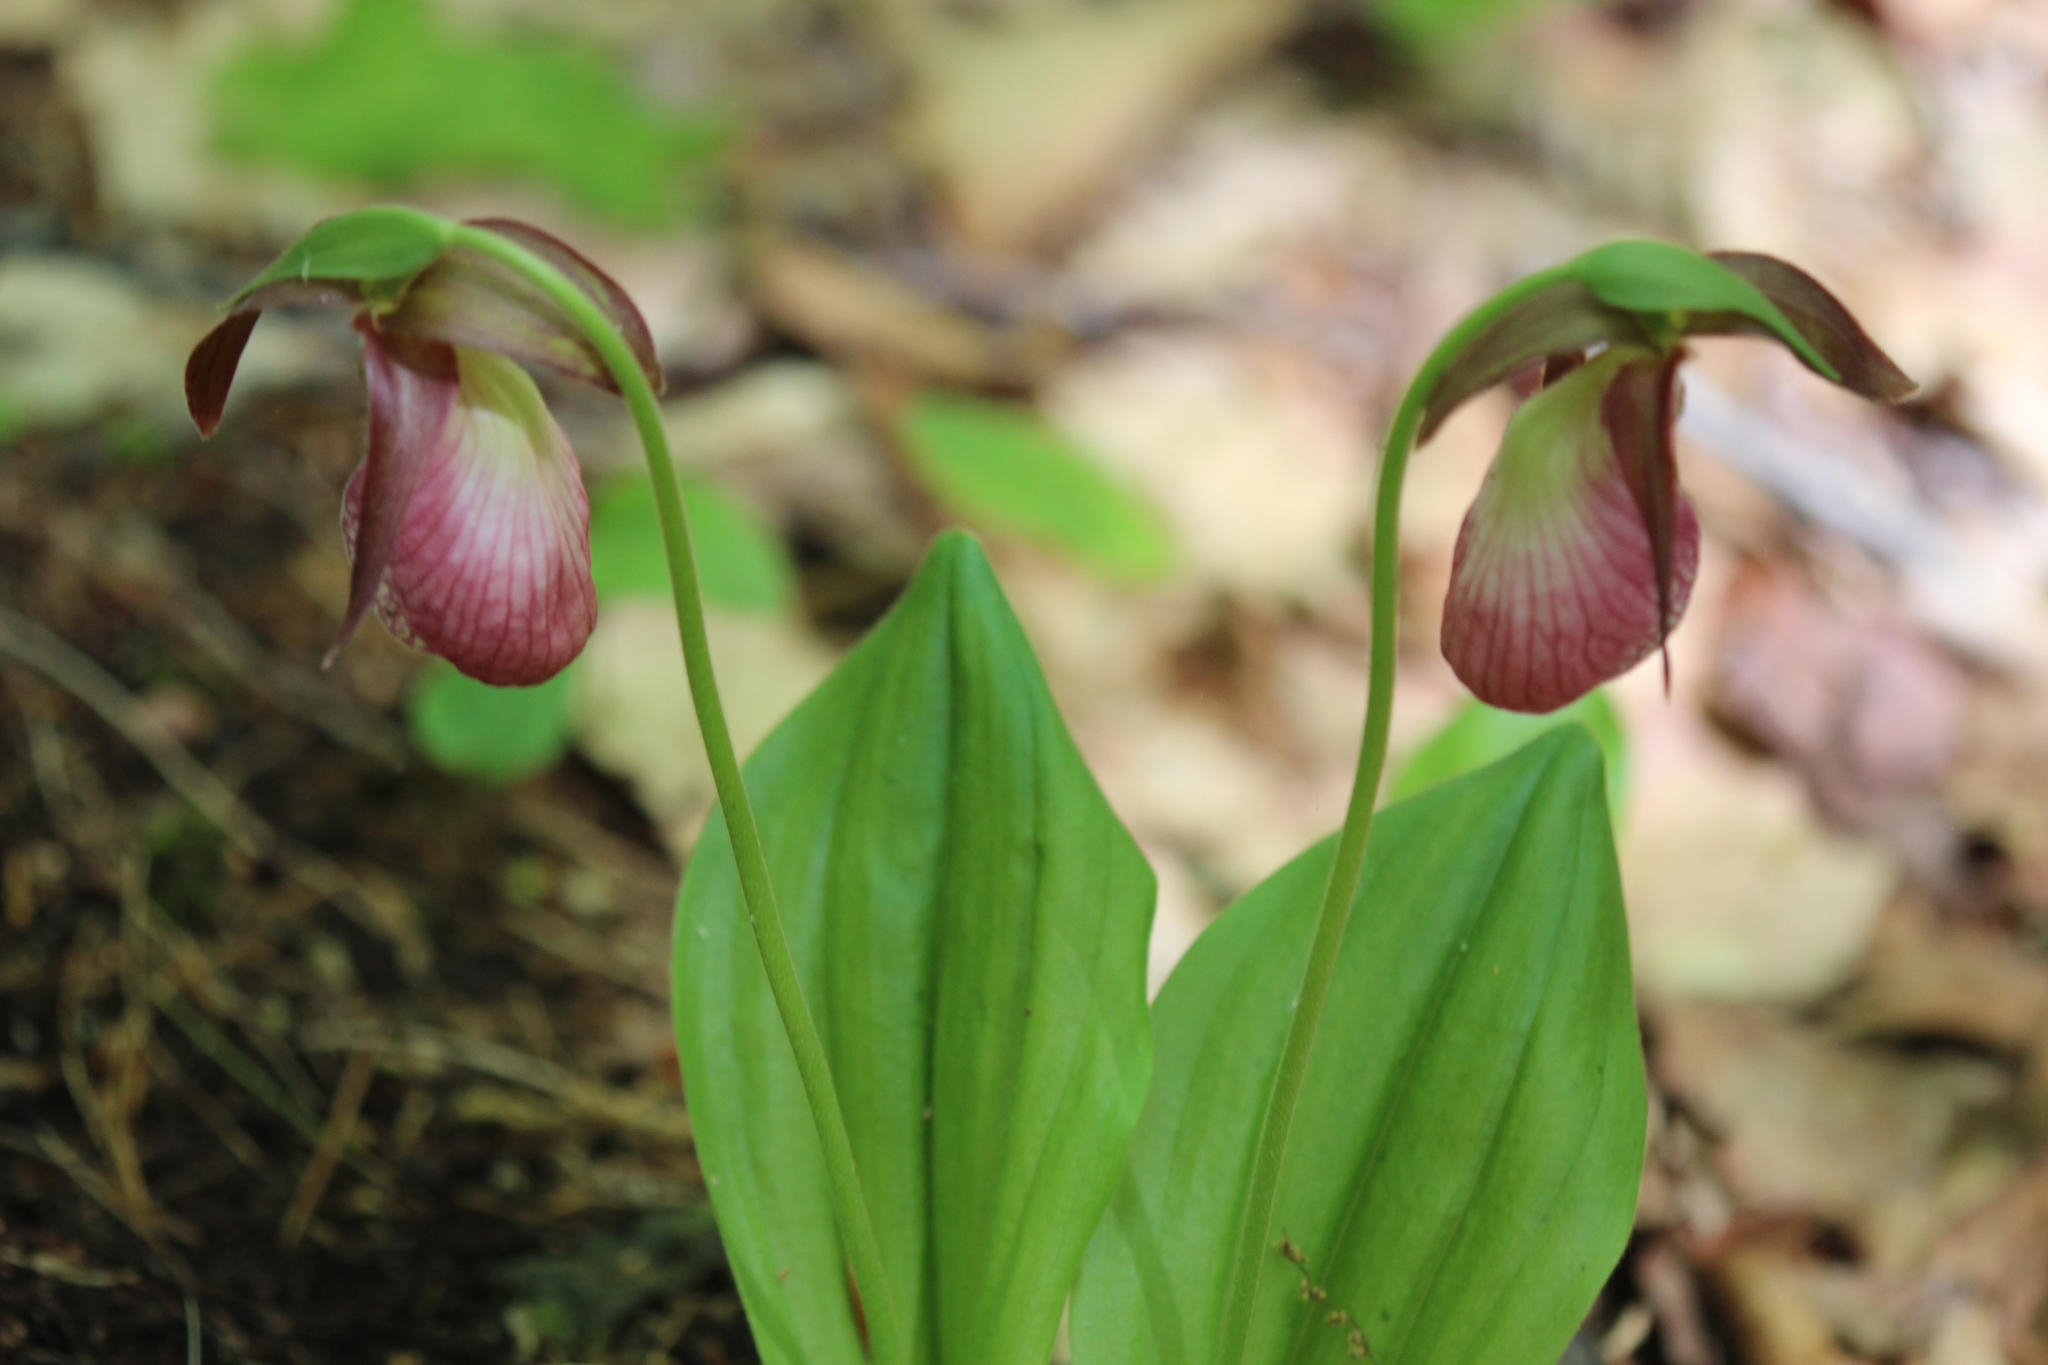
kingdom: Plantae
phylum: Tracheophyta
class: Liliopsida
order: Asparagales
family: Orchidaceae
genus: Cypripedium
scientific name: Cypripedium acaule
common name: Pink lady's-slipper
